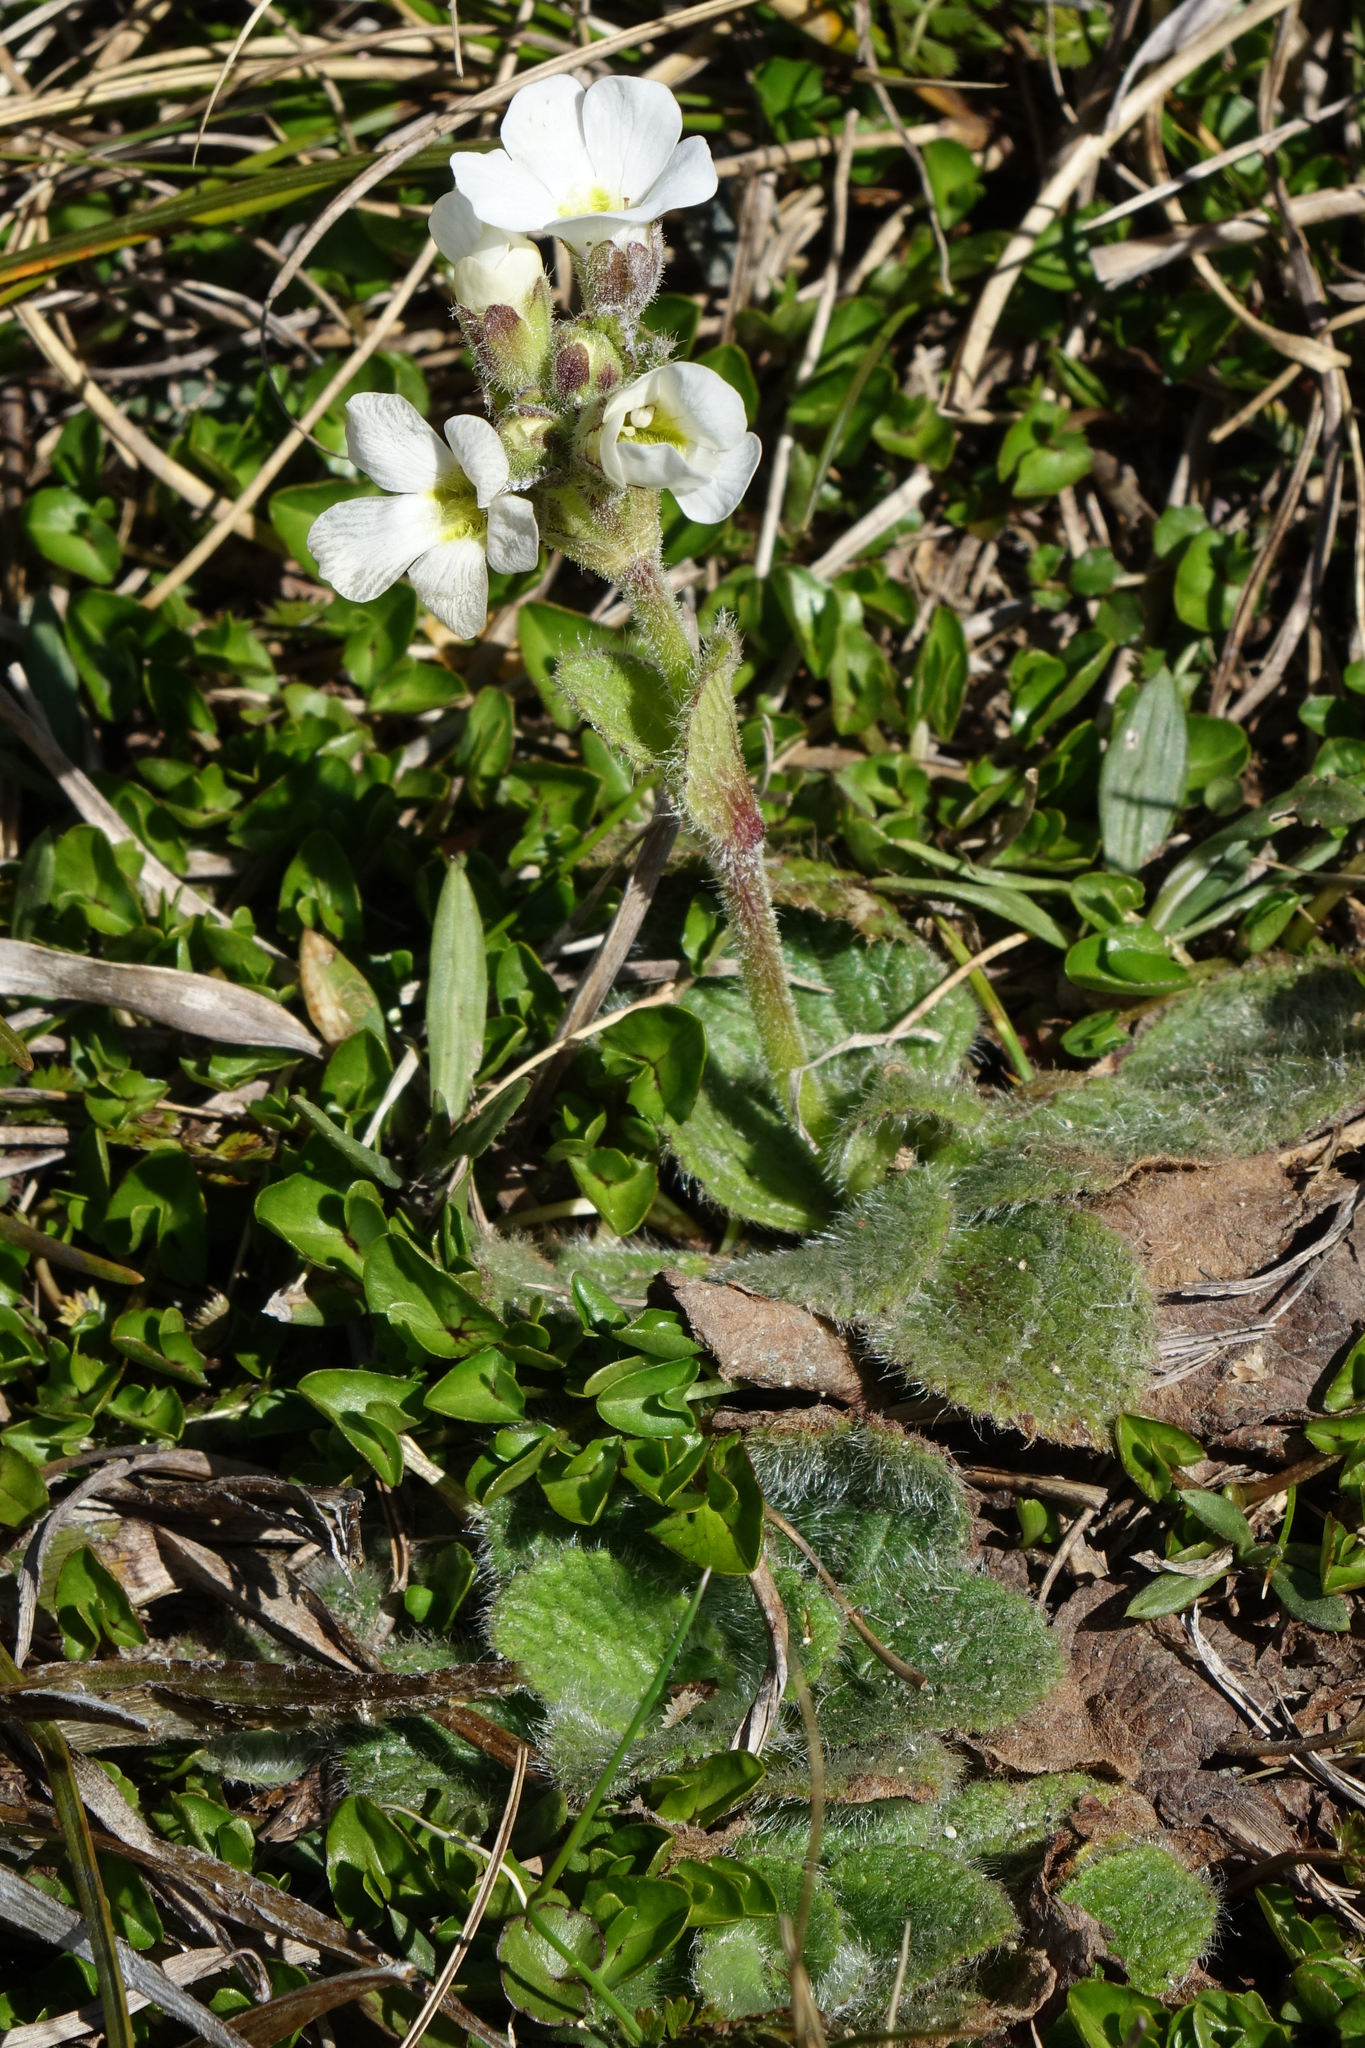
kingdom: Plantae
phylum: Tracheophyta
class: Magnoliopsida
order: Lamiales
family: Plantaginaceae
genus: Ourisia
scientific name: Ourisia sessilifolia
